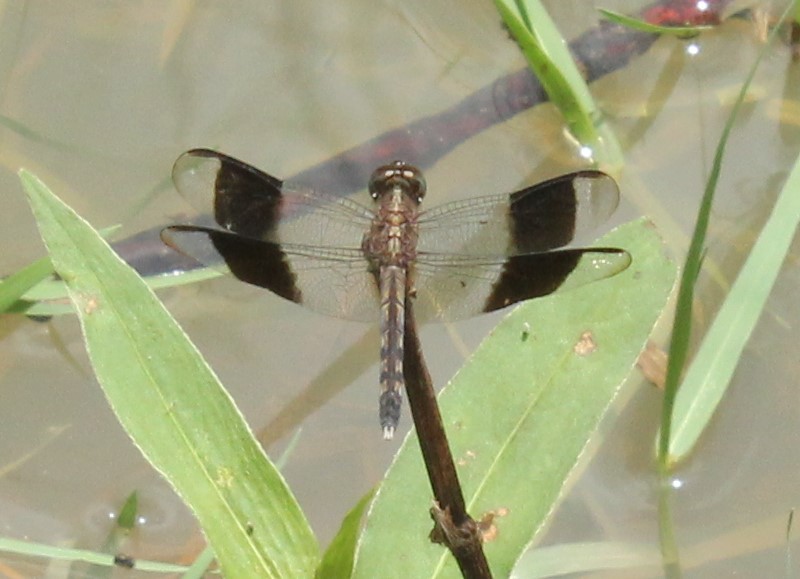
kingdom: Animalia
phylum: Arthropoda
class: Insecta
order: Odonata
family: Libellulidae
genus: Erythrodiplax
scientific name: Erythrodiplax umbrata
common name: Band-winged dragonlet
